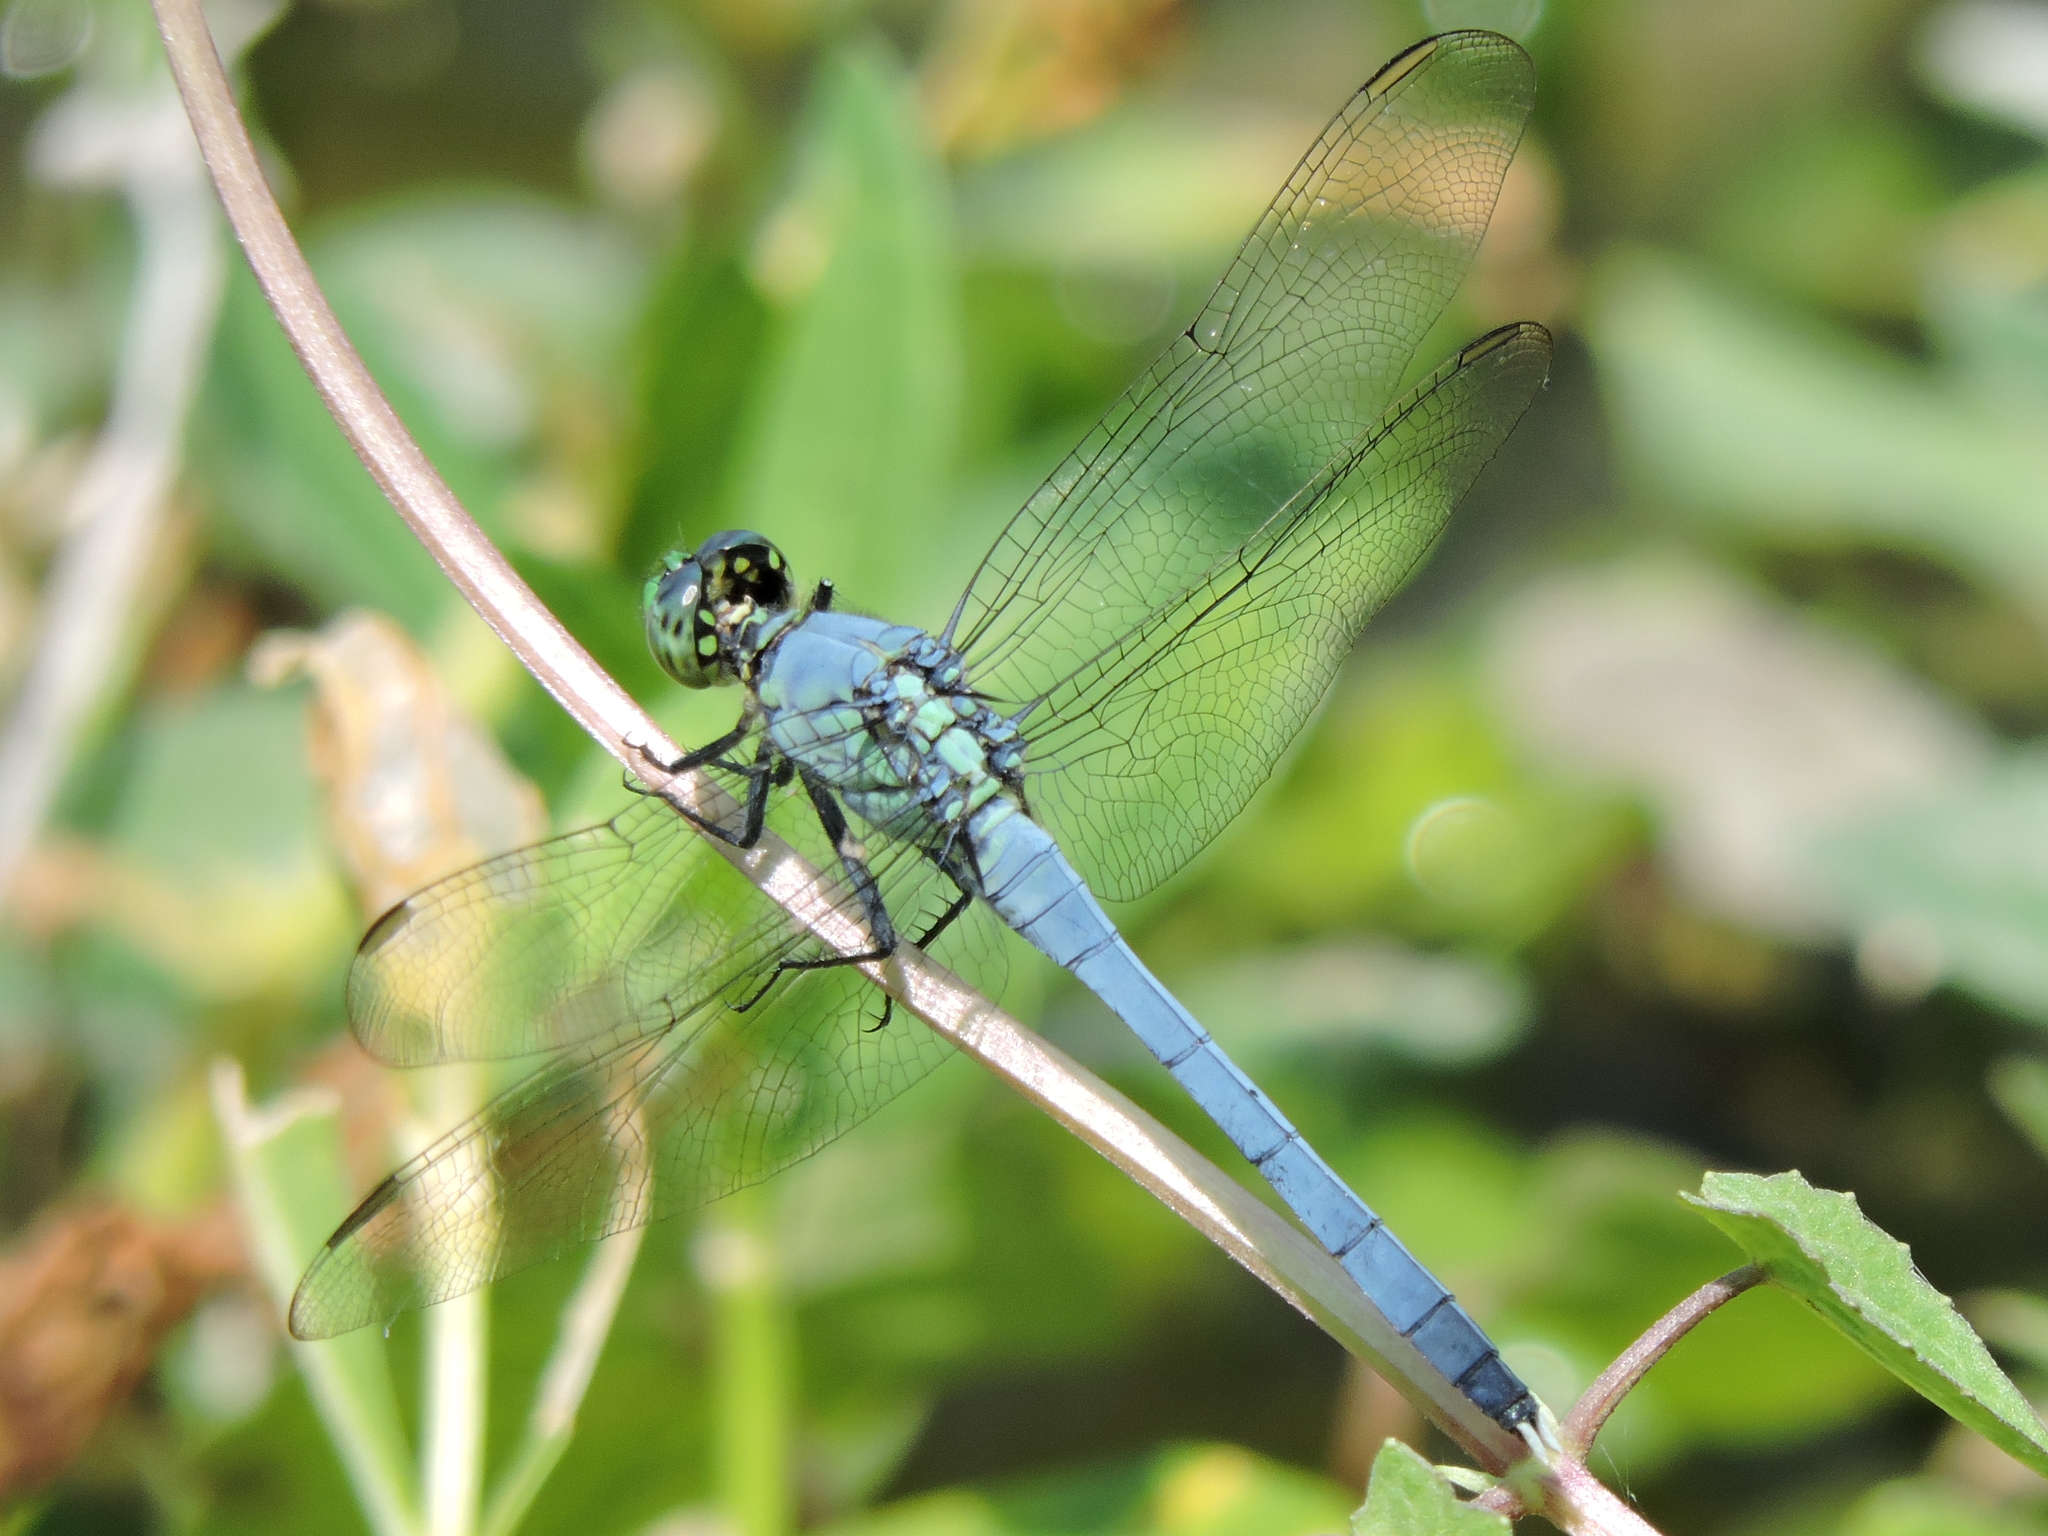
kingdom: Animalia
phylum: Arthropoda
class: Insecta
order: Odonata
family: Libellulidae
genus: Erythemis
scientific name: Erythemis simplicicollis
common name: Eastern pondhawk
